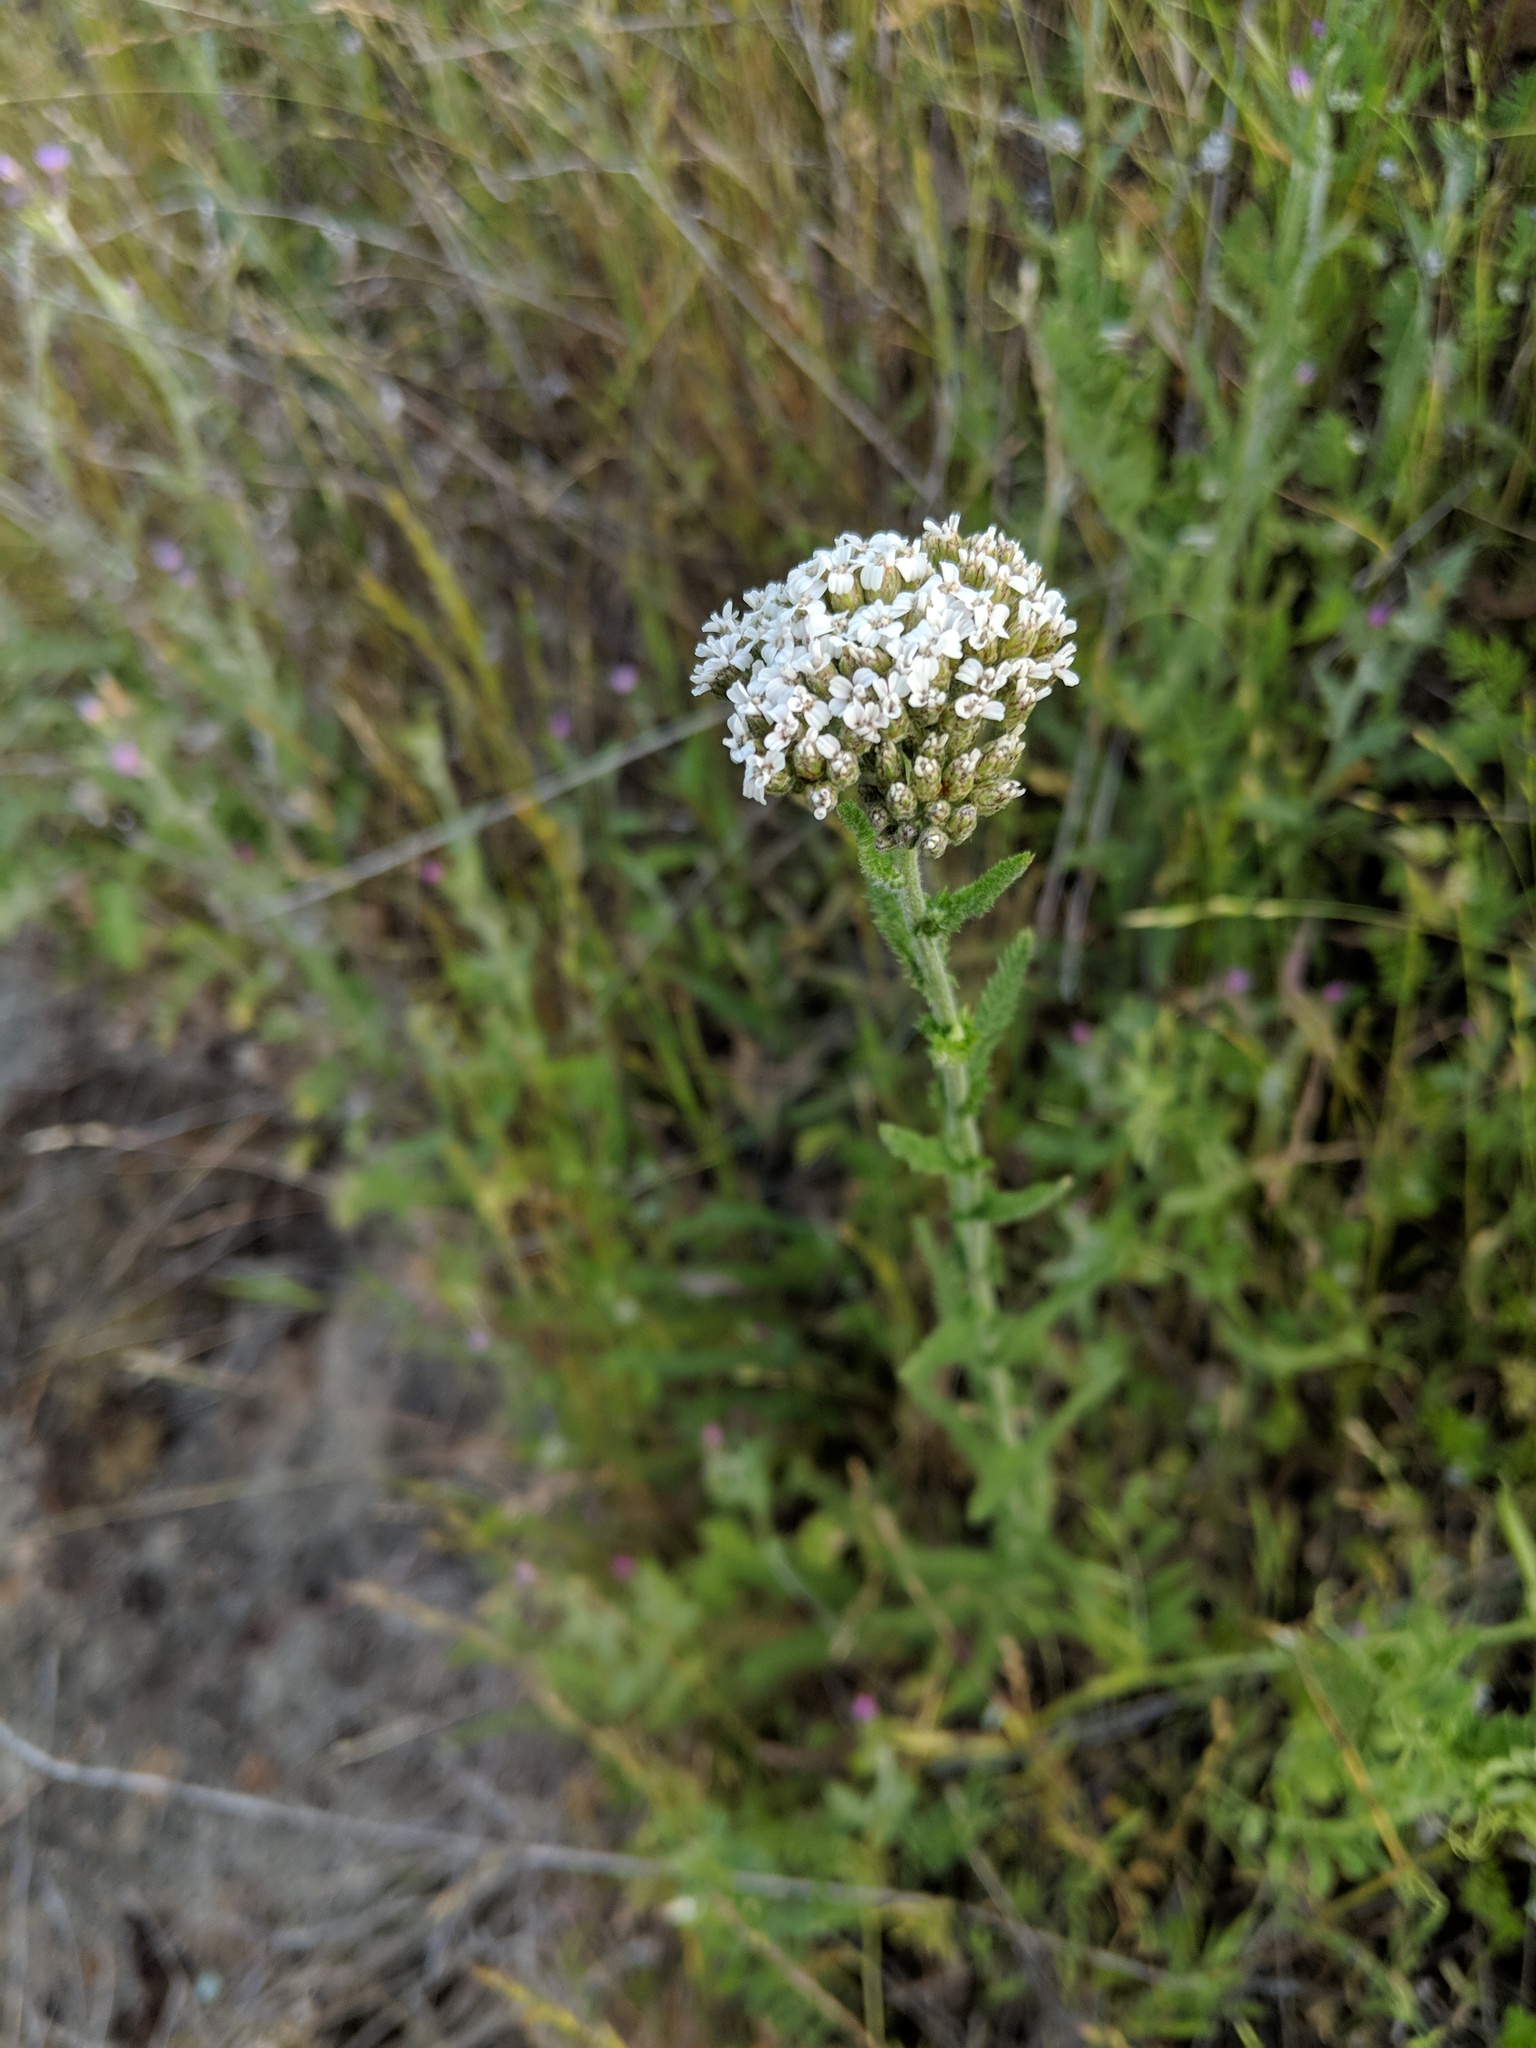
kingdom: Plantae
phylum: Tracheophyta
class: Magnoliopsida
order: Asterales
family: Asteraceae
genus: Achillea
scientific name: Achillea millefolium
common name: Yarrow
